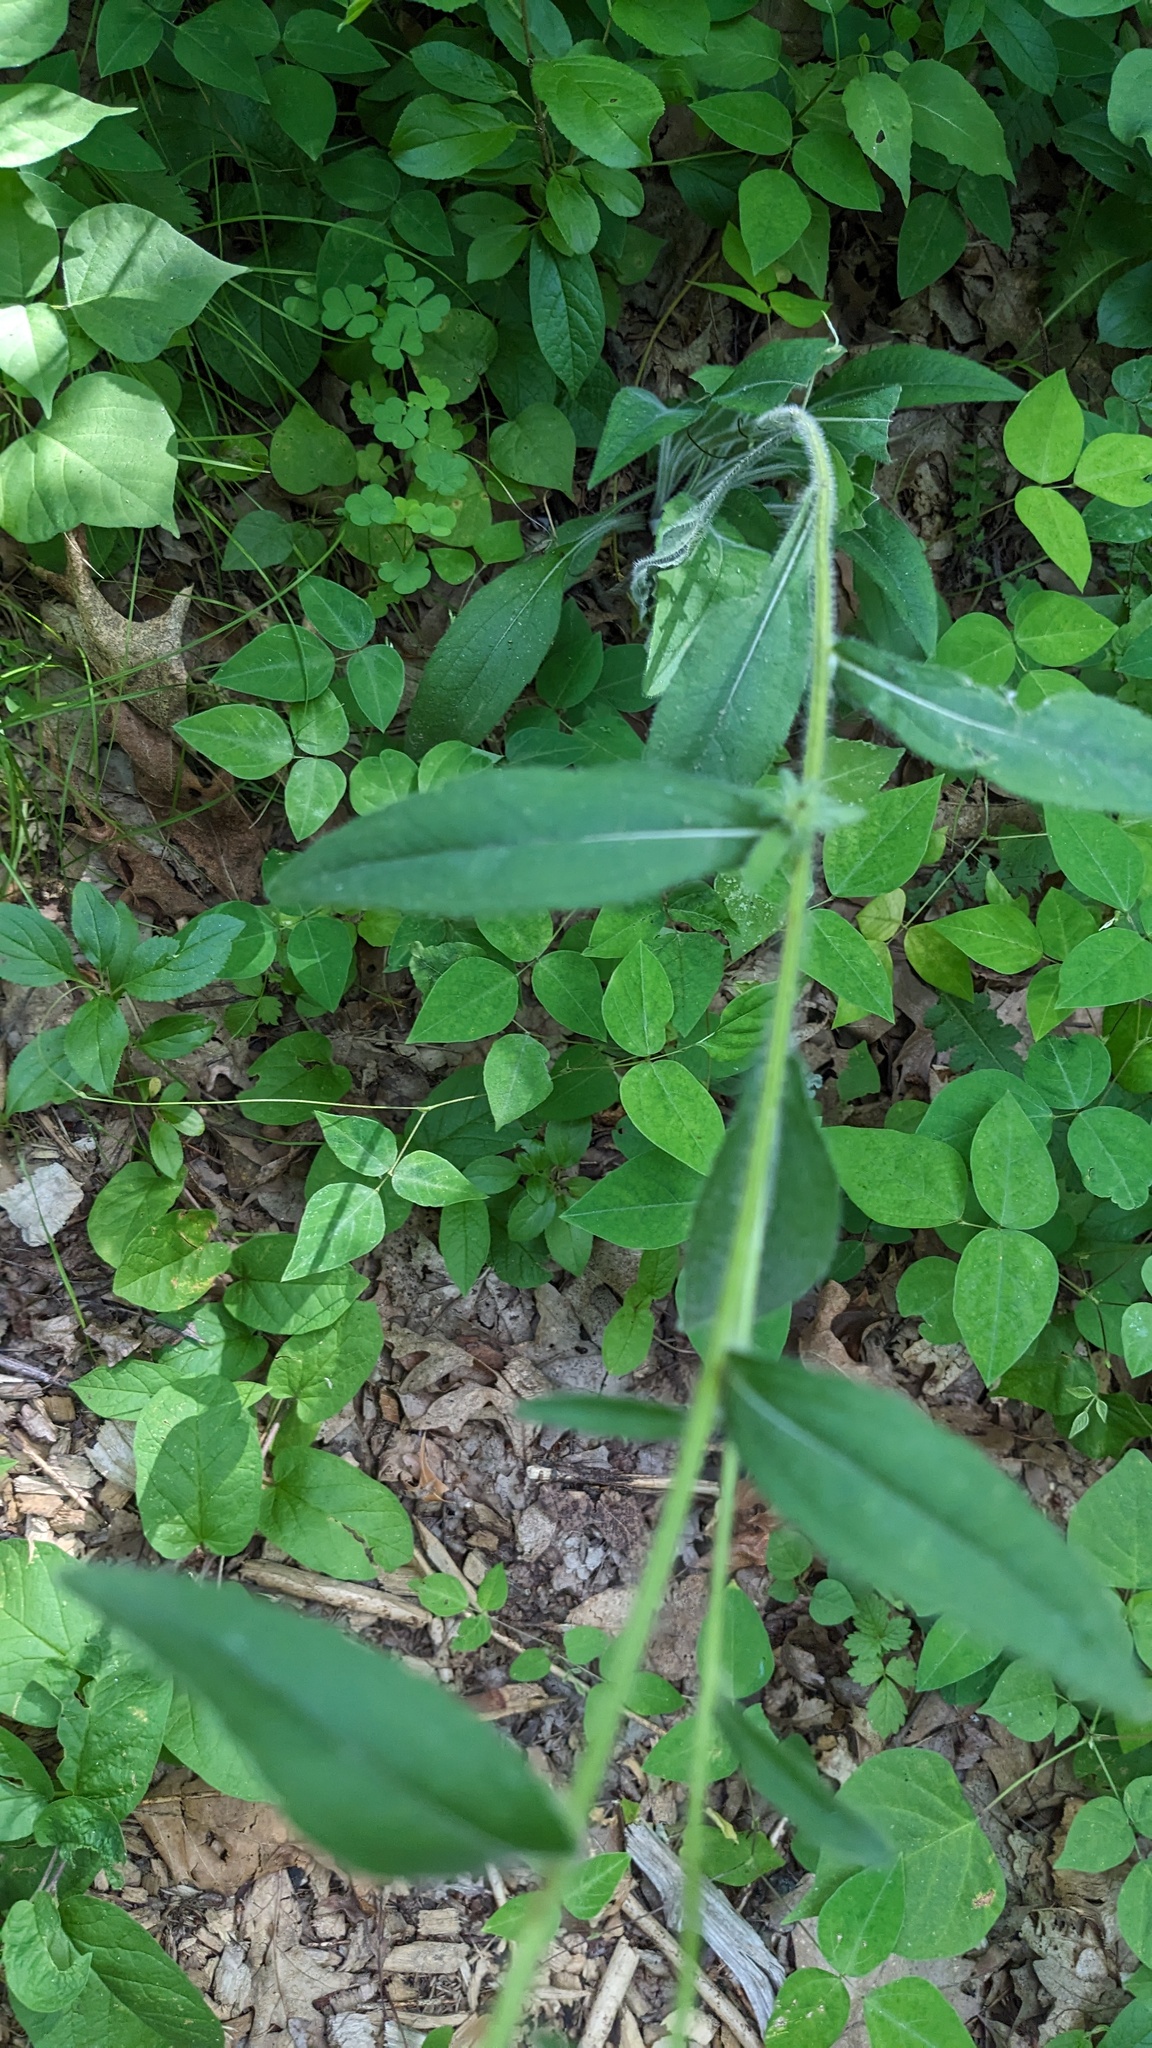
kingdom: Plantae
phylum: Tracheophyta
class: Magnoliopsida
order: Asterales
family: Asteraceae
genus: Rudbeckia
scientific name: Rudbeckia hirta
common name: Black-eyed-susan
